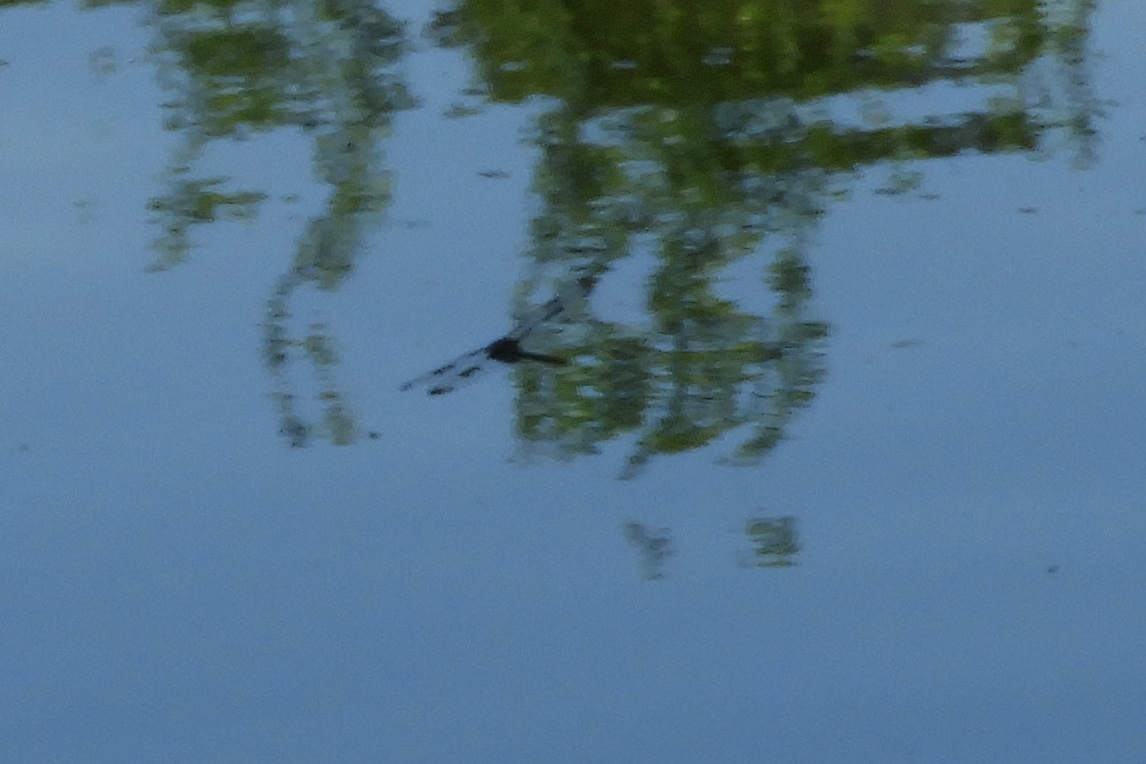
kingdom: Animalia
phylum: Arthropoda
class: Insecta
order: Odonata
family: Corduliidae
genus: Epitheca
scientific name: Epitheca princeps
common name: Prince baskettail
